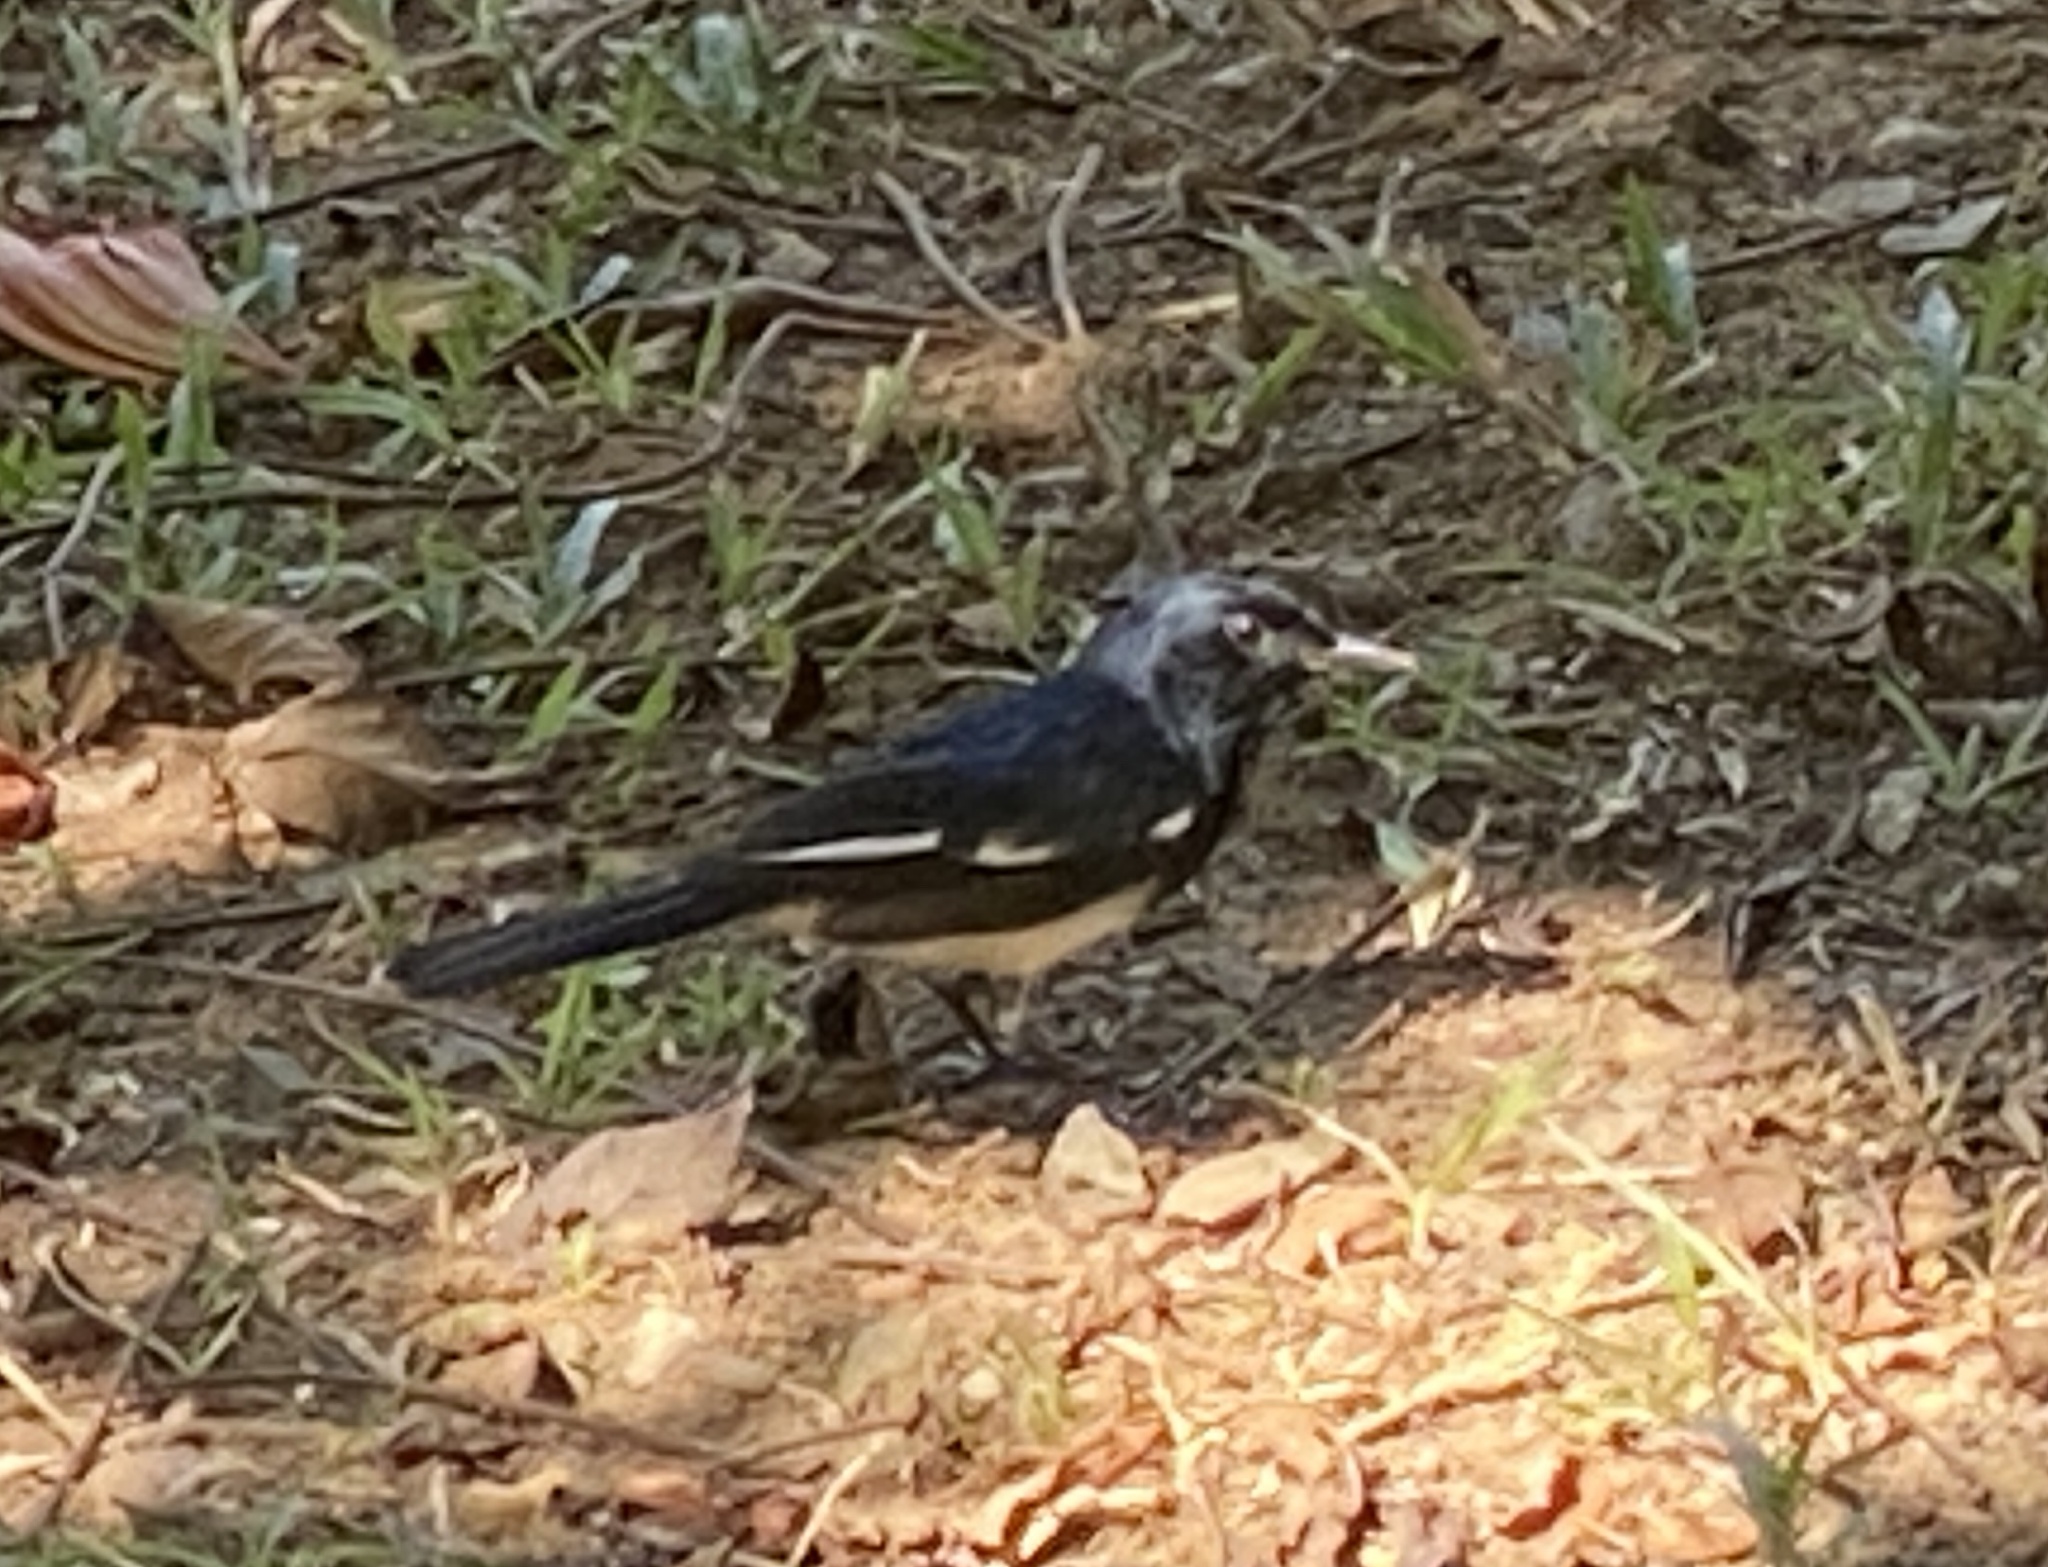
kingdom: Animalia
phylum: Chordata
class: Aves
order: Passeriformes
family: Muscicapidae
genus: Copsychus
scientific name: Copsychus saularis
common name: Oriental magpie-robin
